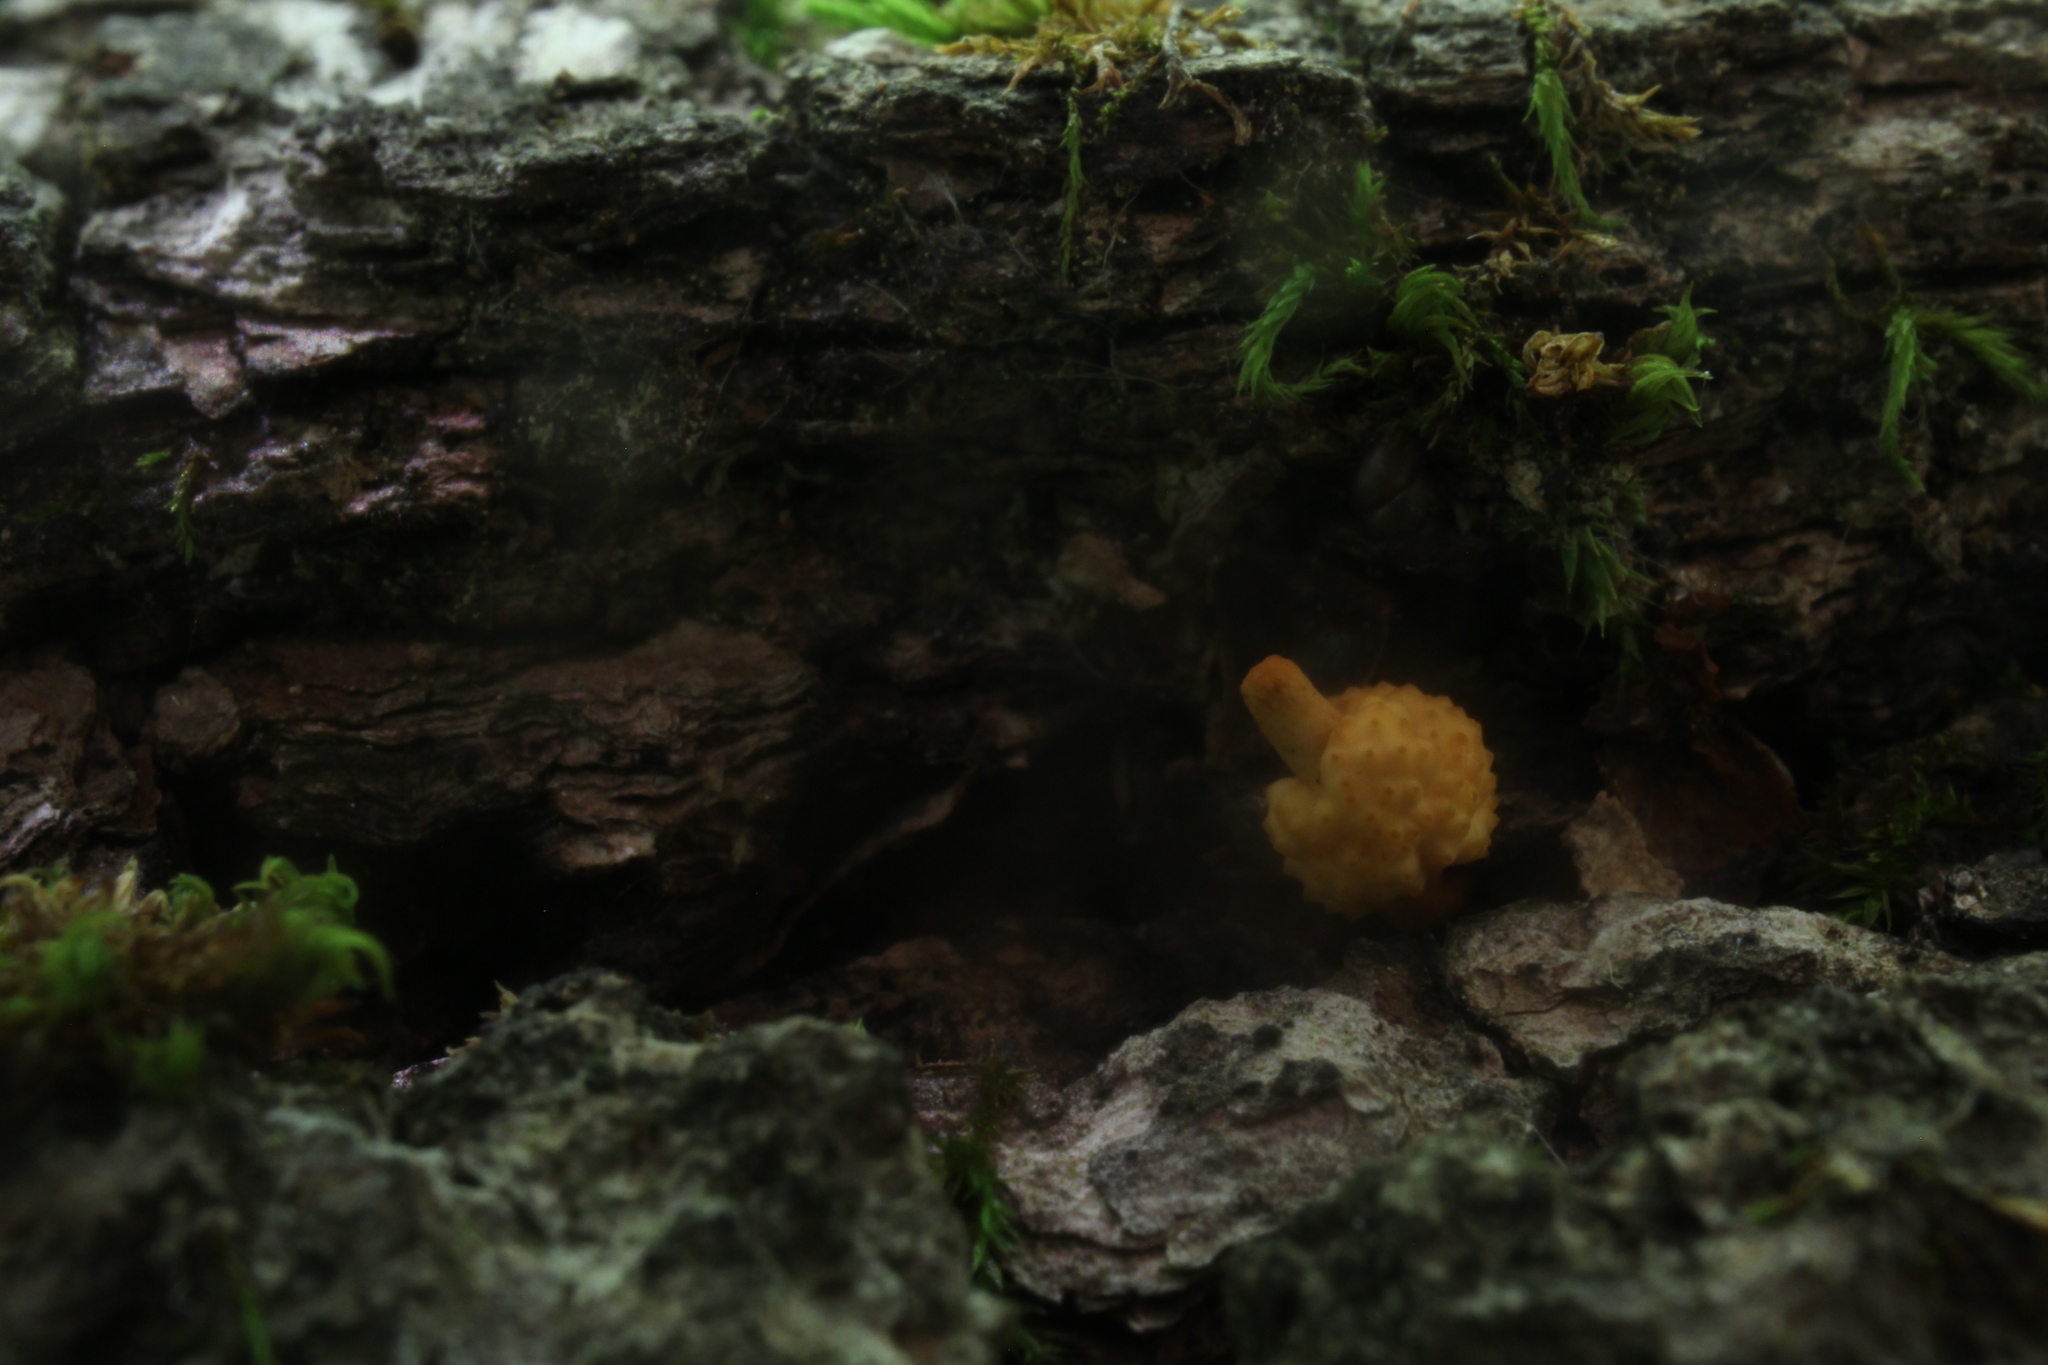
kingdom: Fungi
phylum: Ascomycota
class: Sordariomycetes
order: Hypocreales
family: Ophiocordycipitaceae
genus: Ophiocordyceps
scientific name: Ophiocordyceps variabilis
